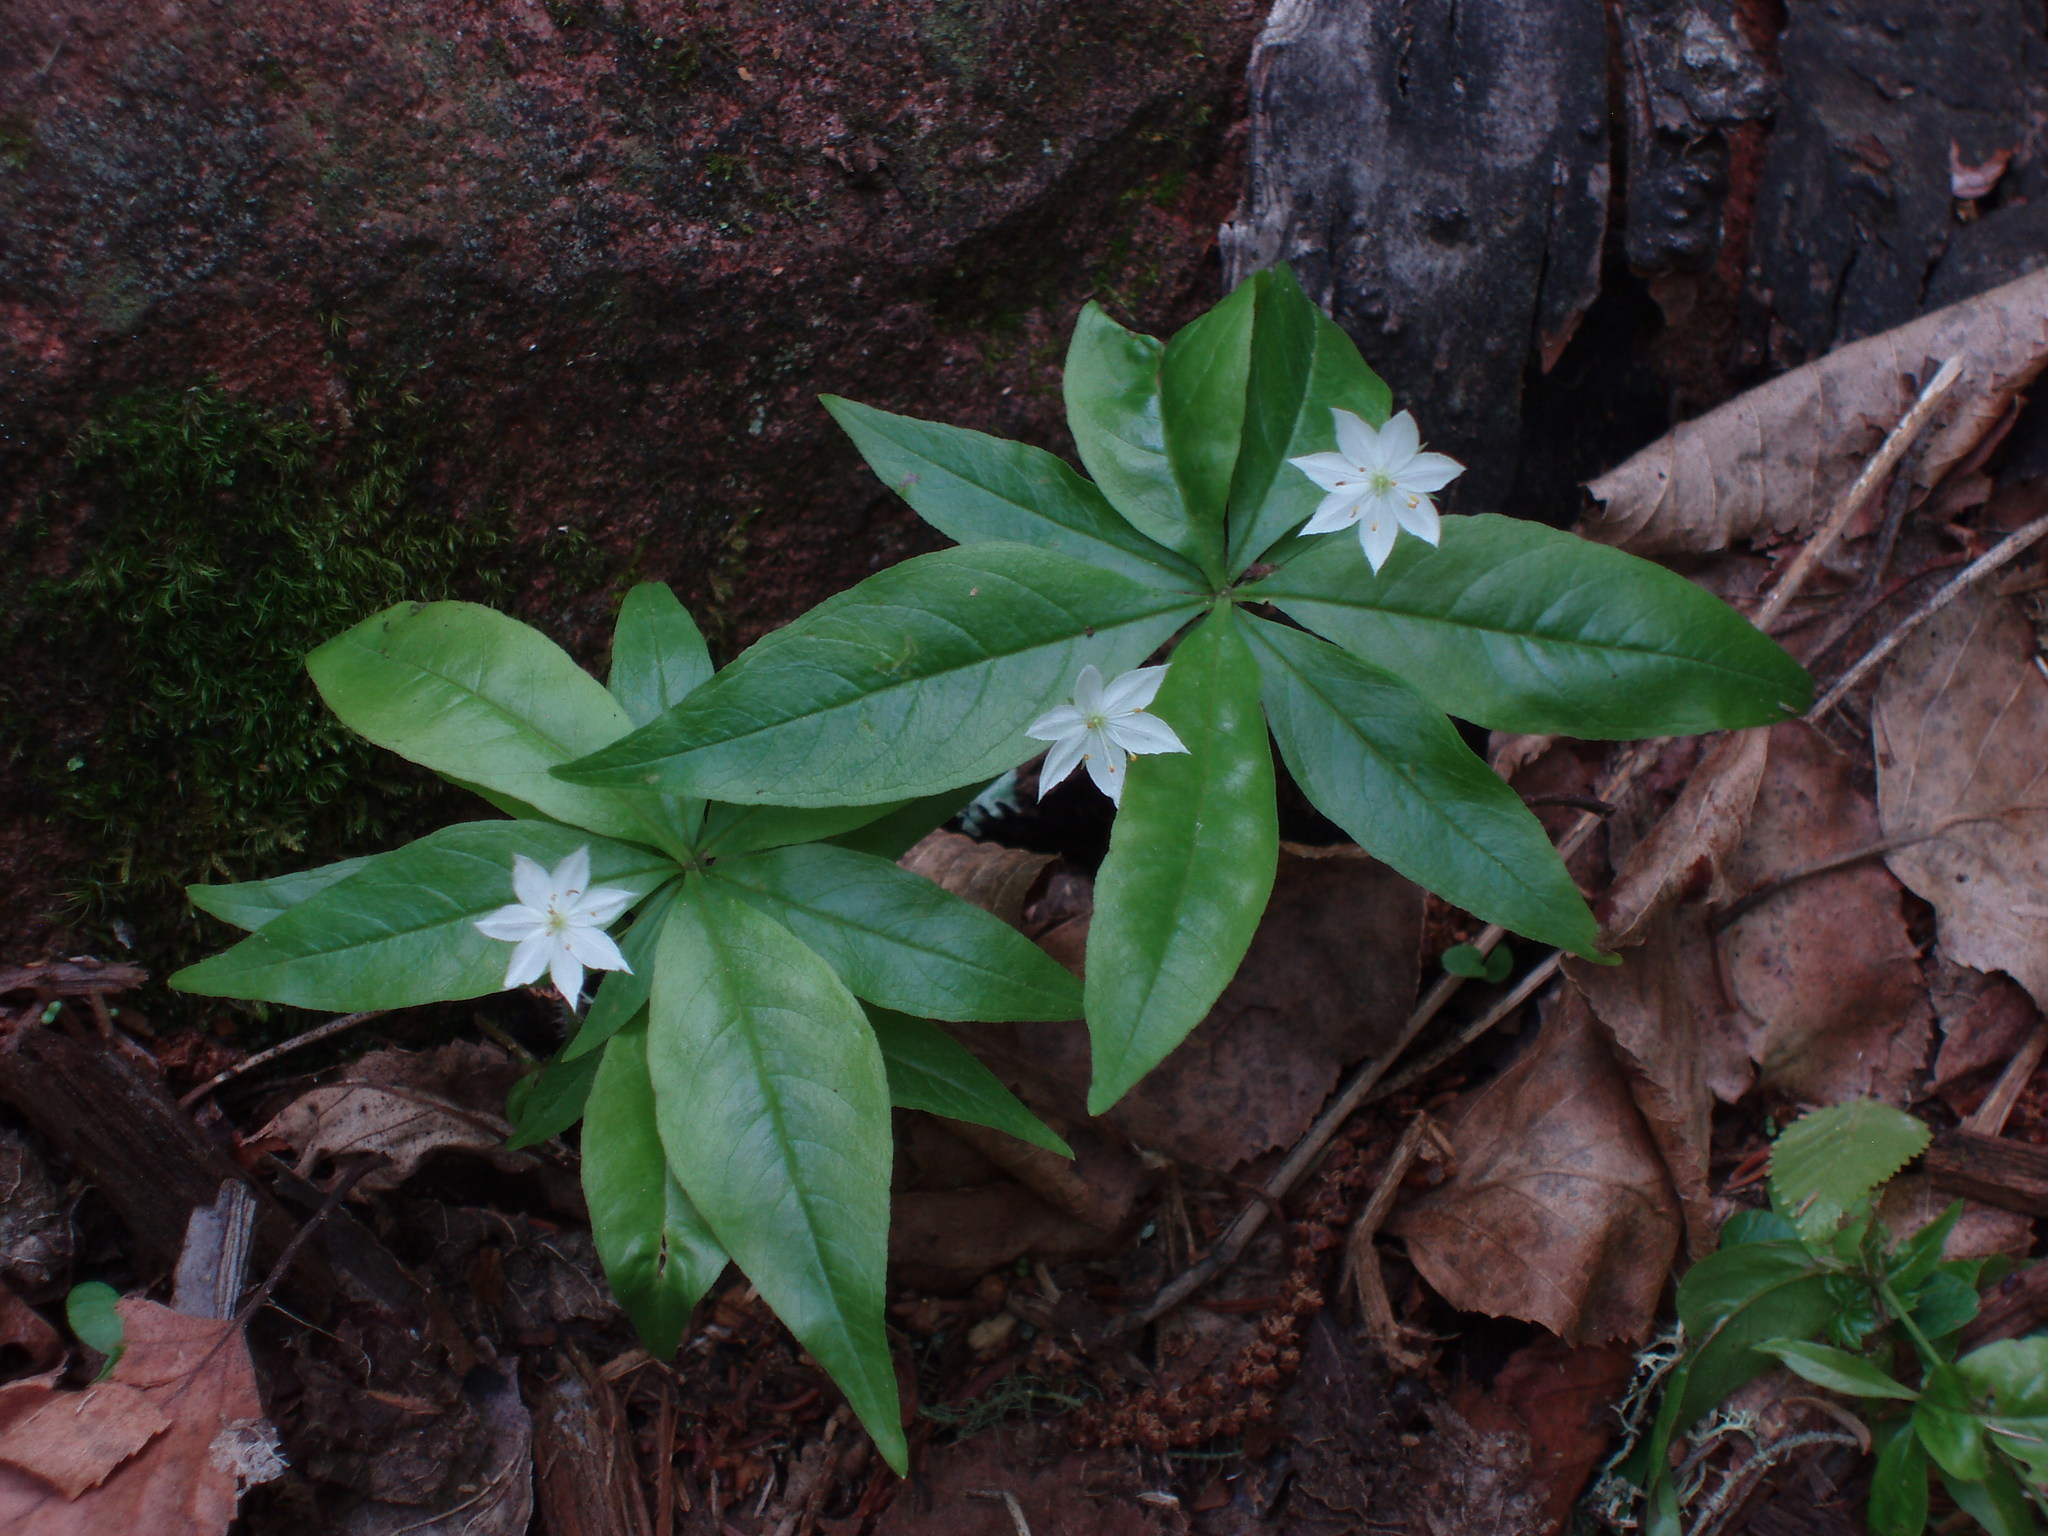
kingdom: Plantae
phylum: Tracheophyta
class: Magnoliopsida
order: Ericales
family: Primulaceae
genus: Lysimachia
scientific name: Lysimachia borealis
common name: American starflower
